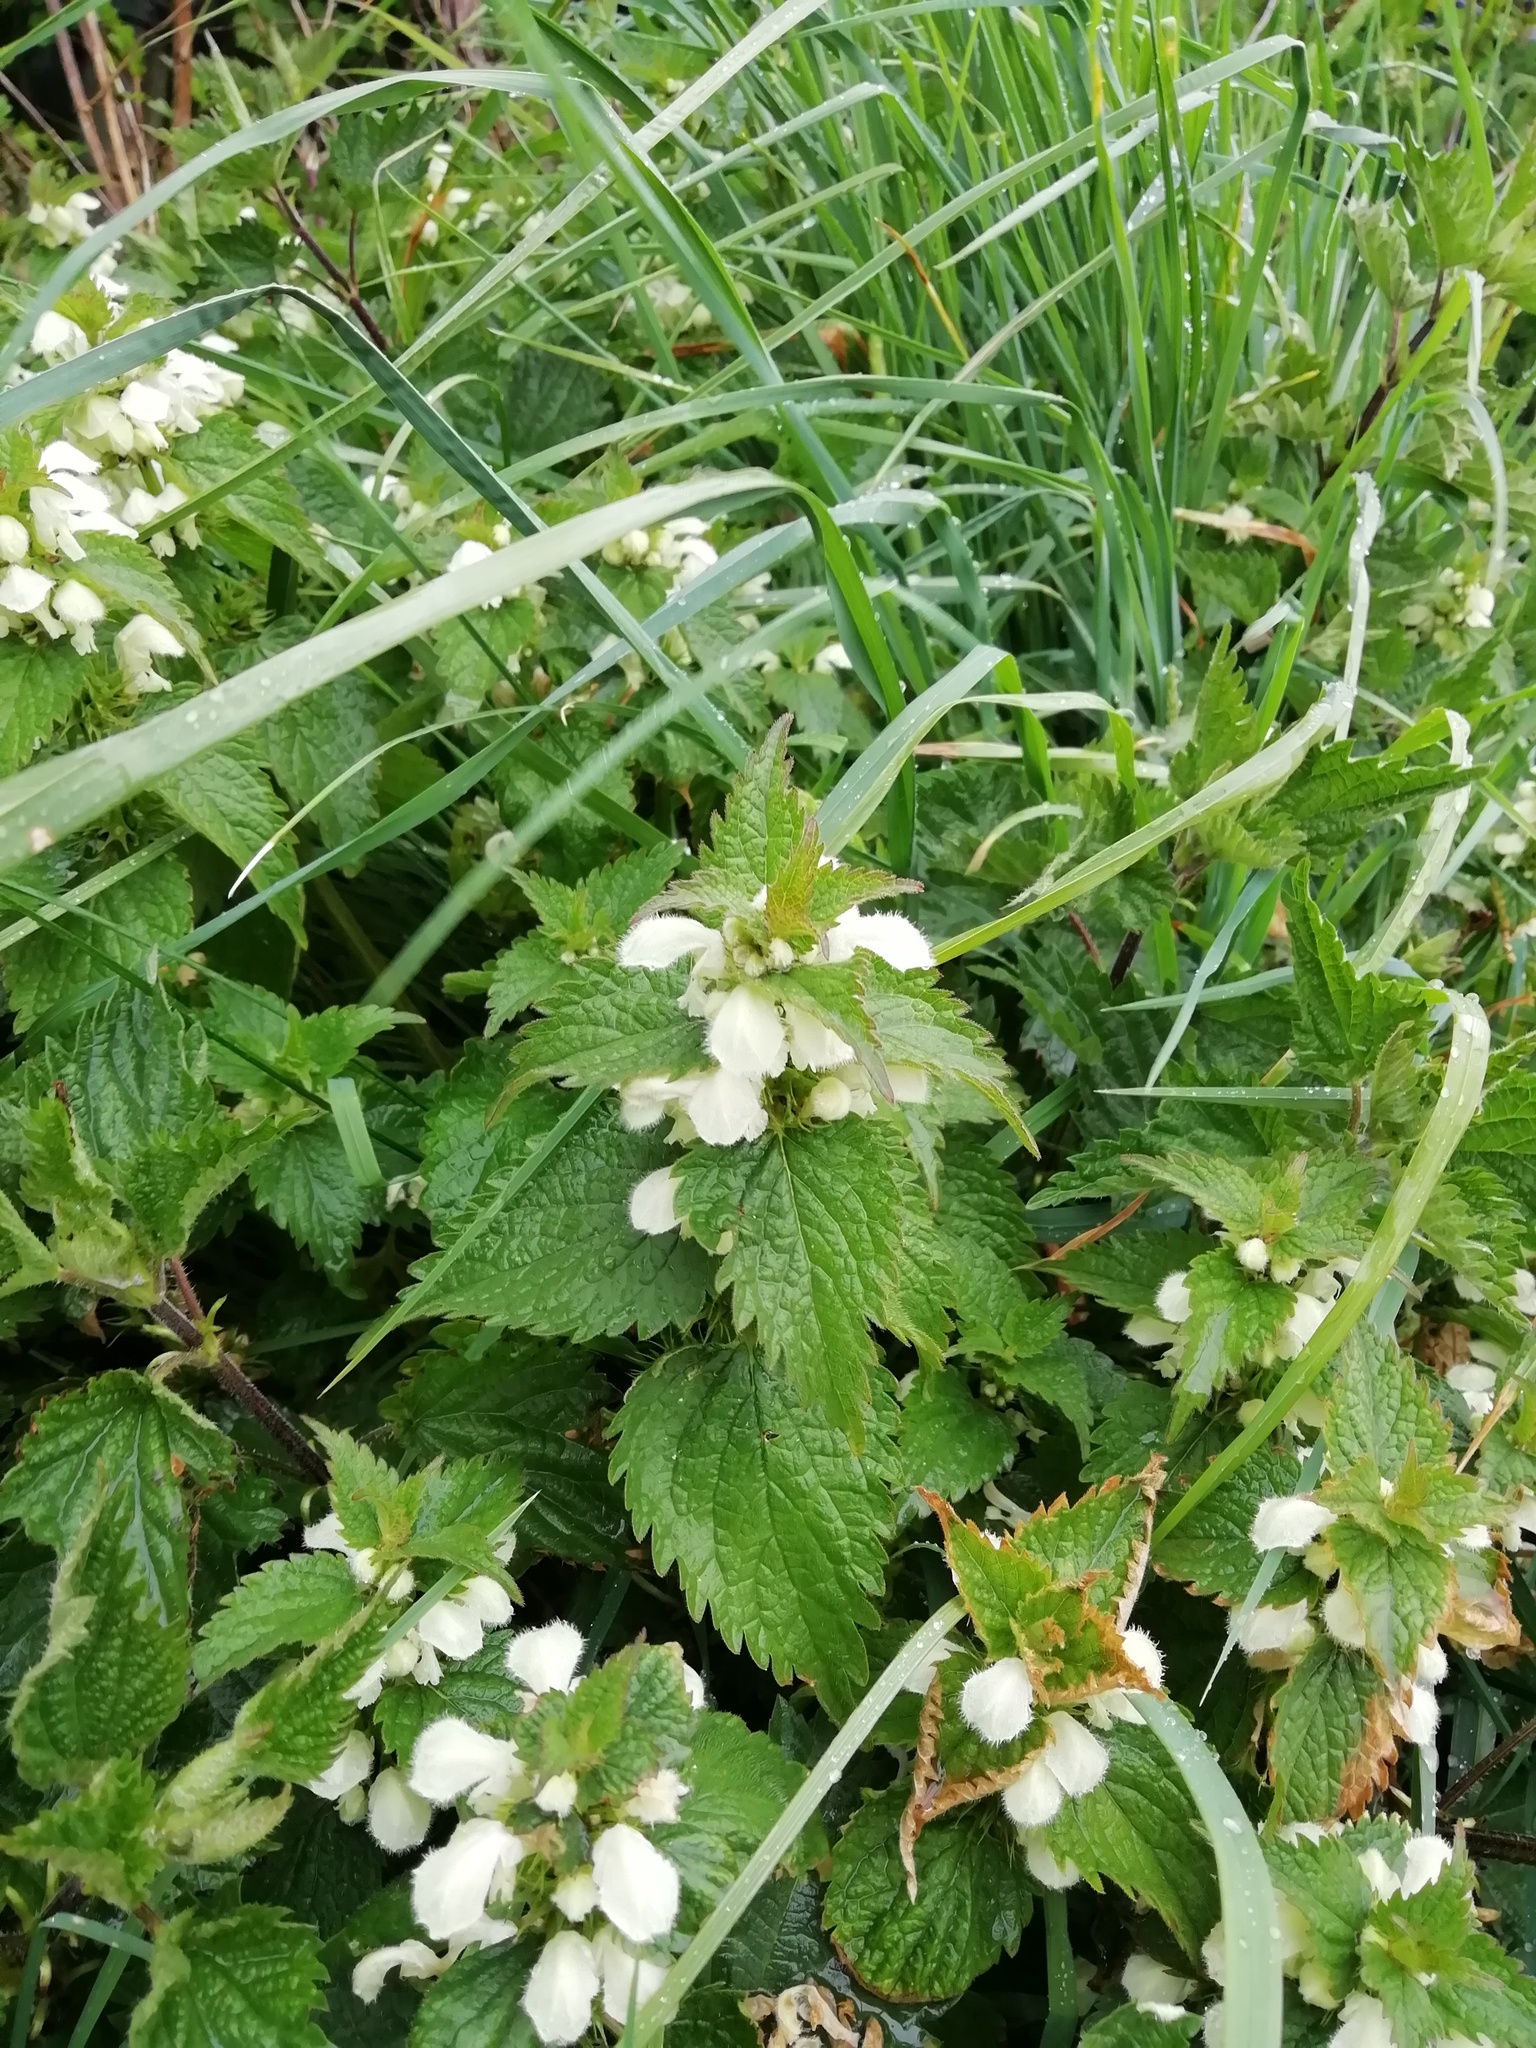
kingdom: Plantae
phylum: Tracheophyta
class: Magnoliopsida
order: Lamiales
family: Lamiaceae
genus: Lamium
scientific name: Lamium album
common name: White dead-nettle
